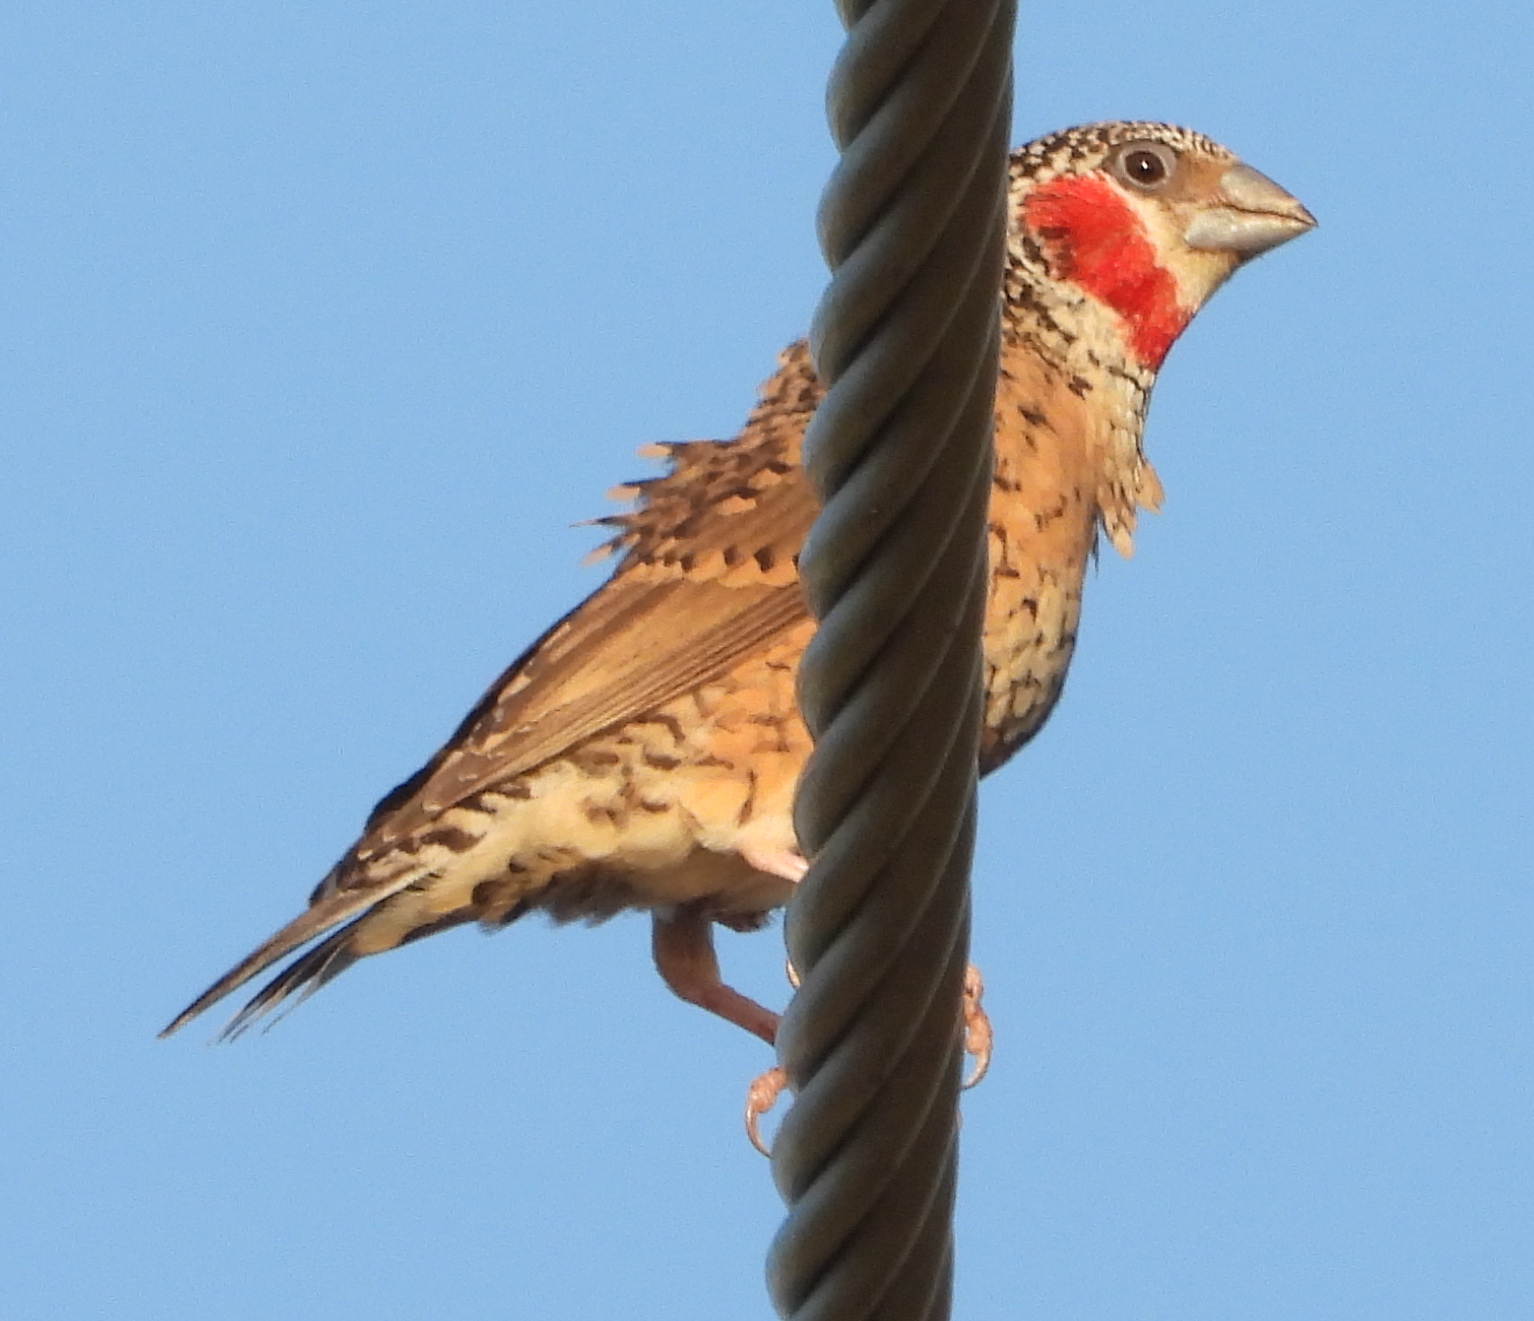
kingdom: Animalia
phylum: Chordata
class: Aves
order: Passeriformes
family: Estrildidae
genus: Amadina
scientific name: Amadina fasciata
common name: Cut-throat finch
